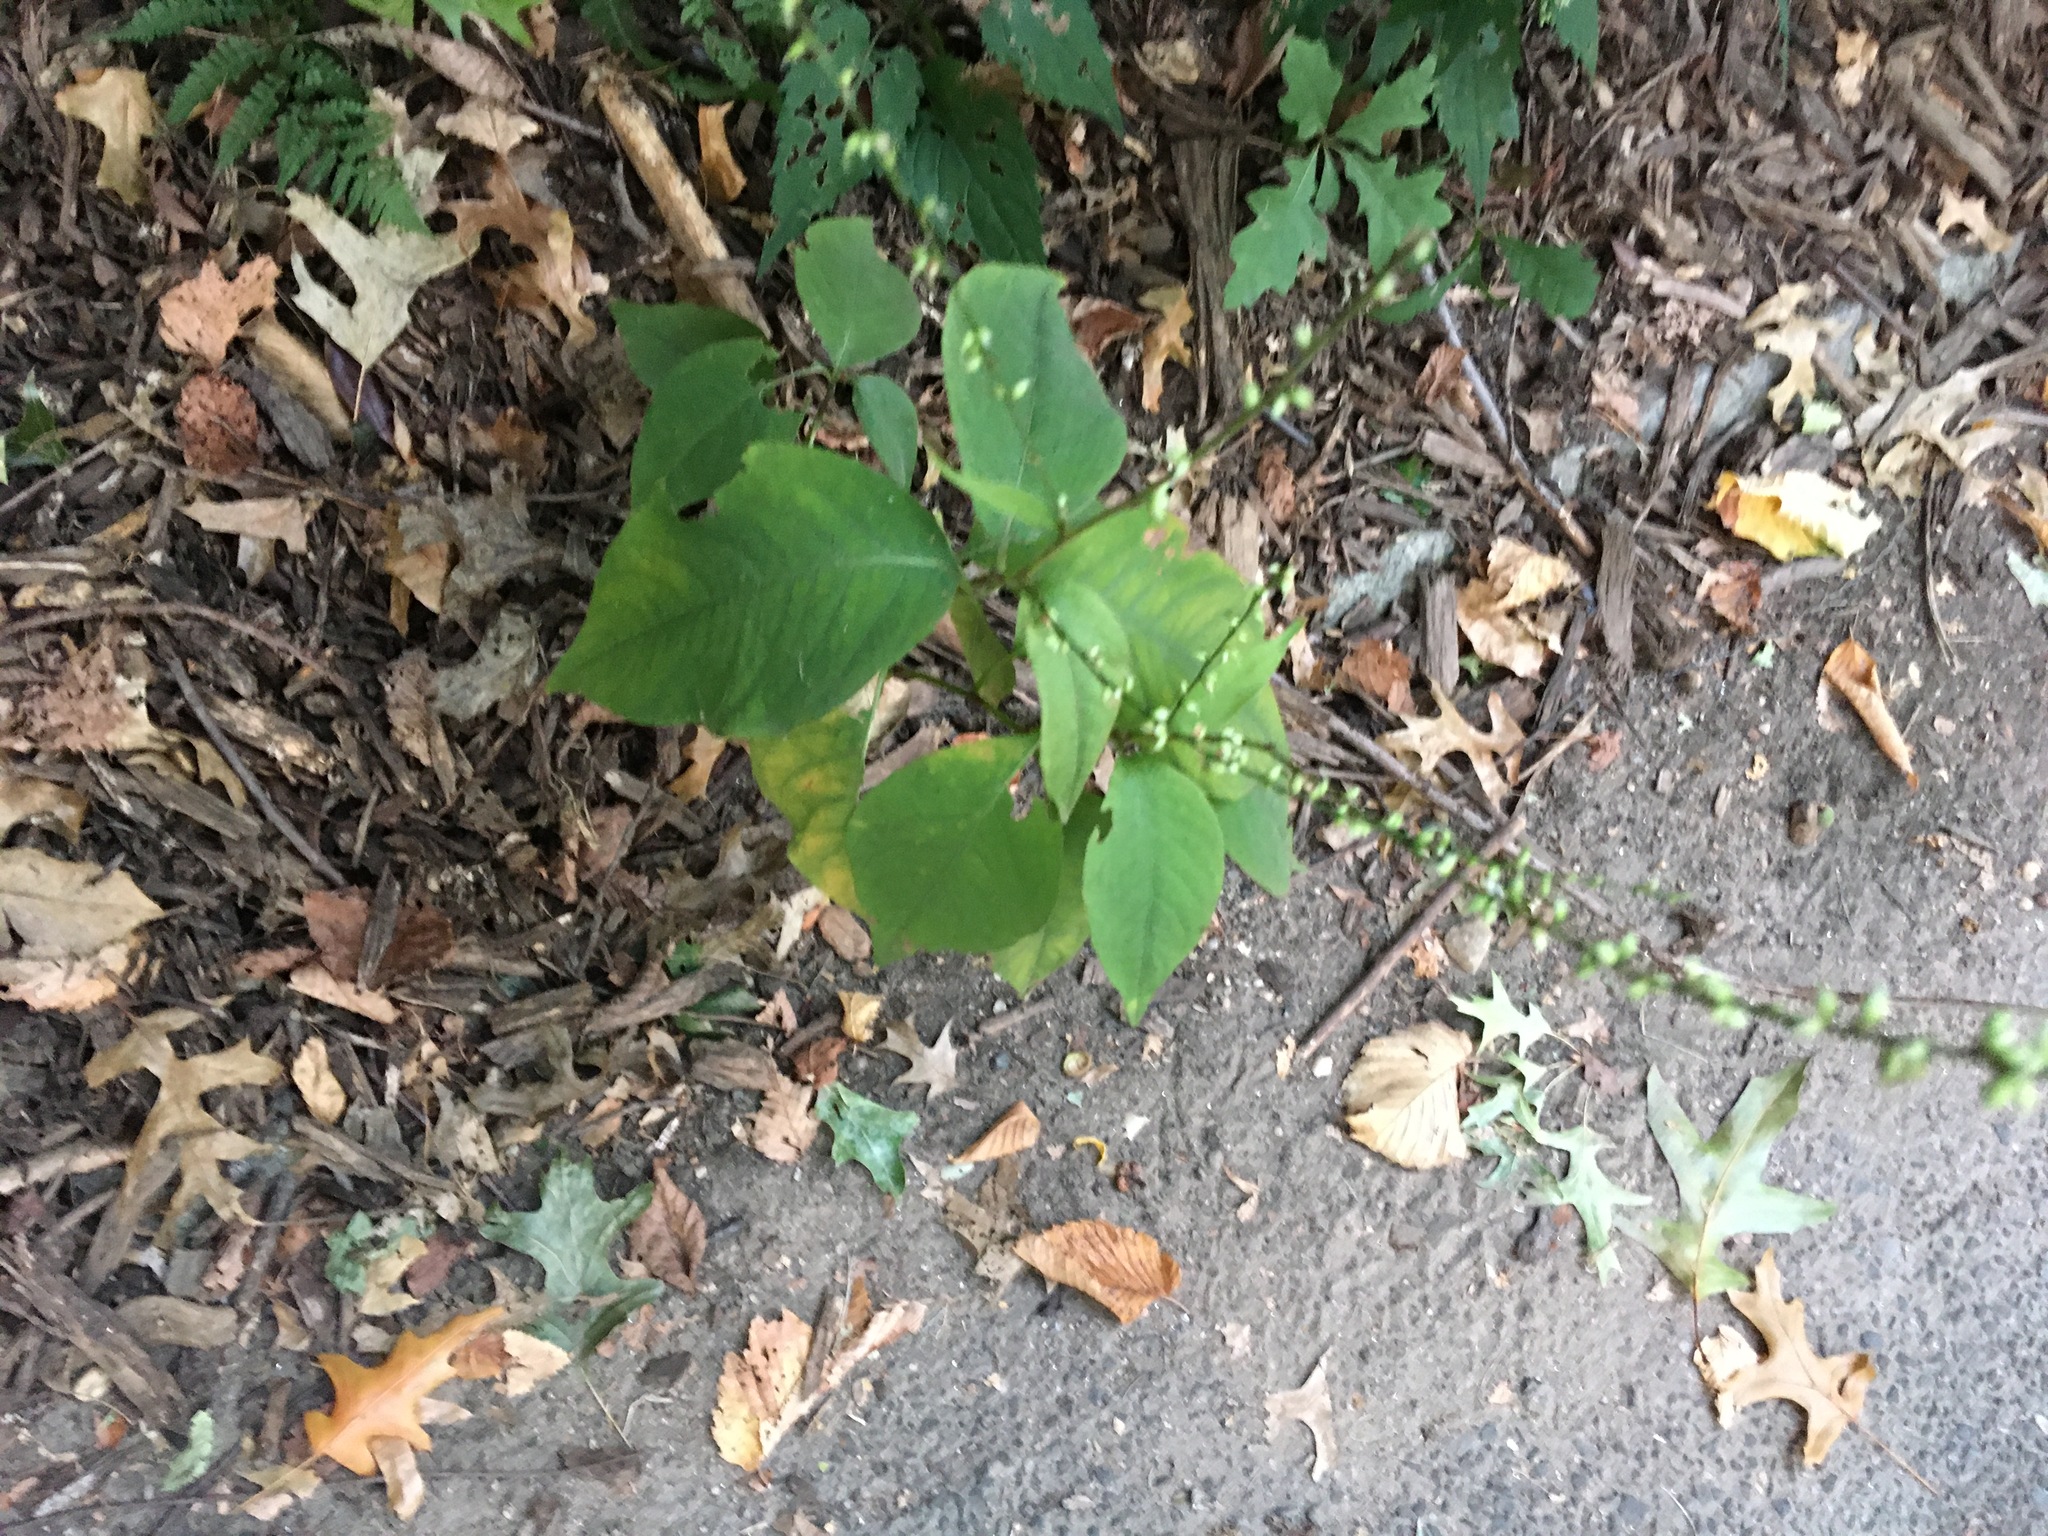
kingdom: Plantae
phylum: Tracheophyta
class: Magnoliopsida
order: Caryophyllales
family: Polygonaceae
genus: Persicaria
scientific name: Persicaria virginiana
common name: Jumpseed
